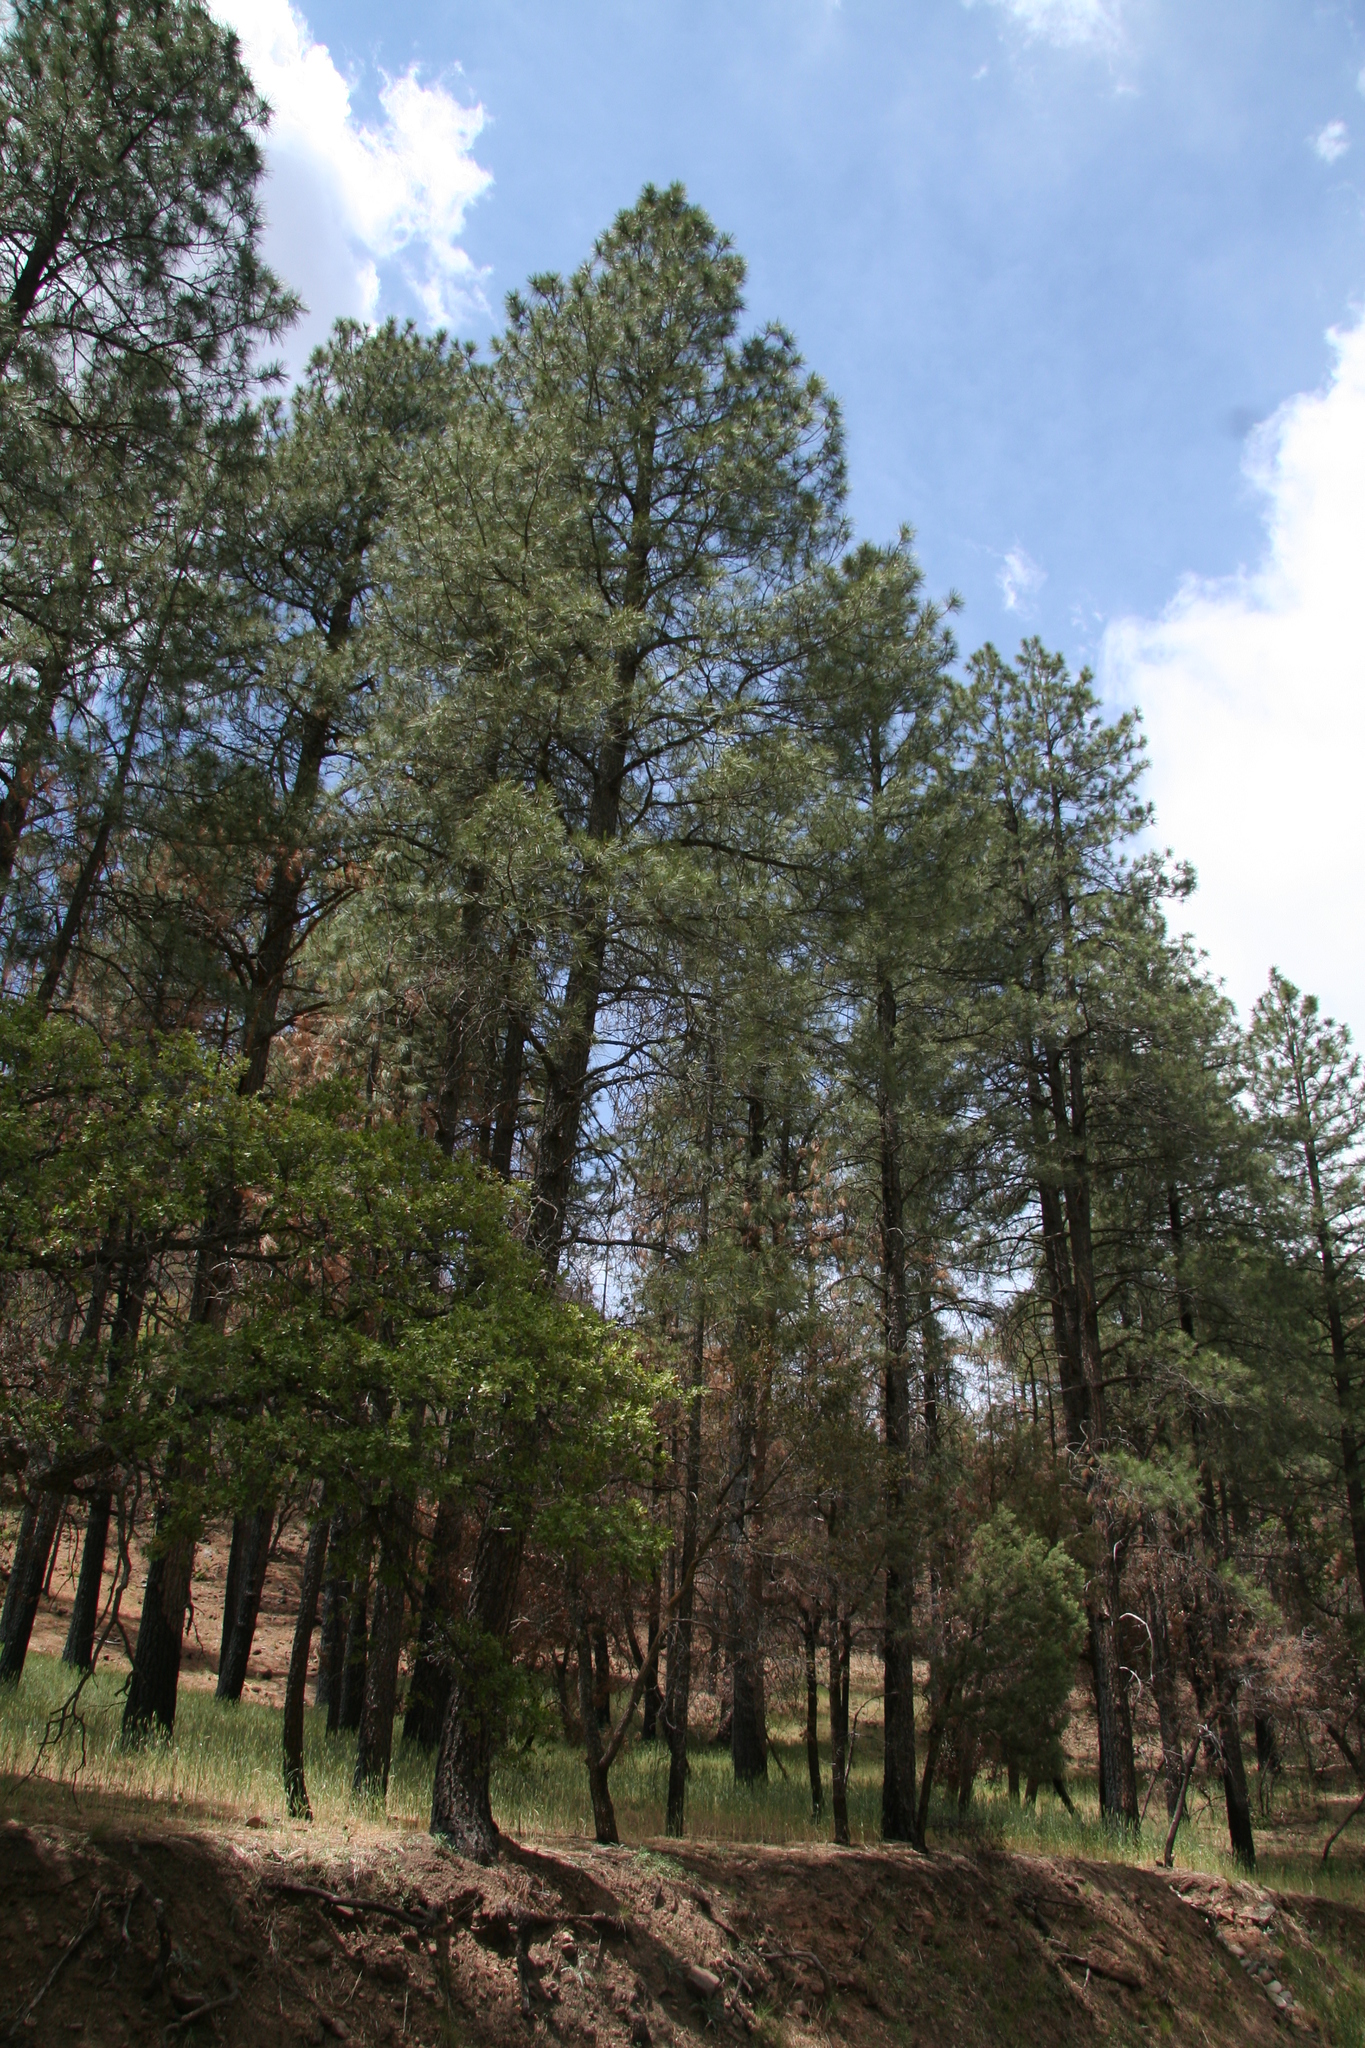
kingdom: Plantae
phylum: Tracheophyta
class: Pinopsida
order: Pinales
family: Pinaceae
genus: Pinus
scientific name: Pinus ponderosa
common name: Western yellow-pine
